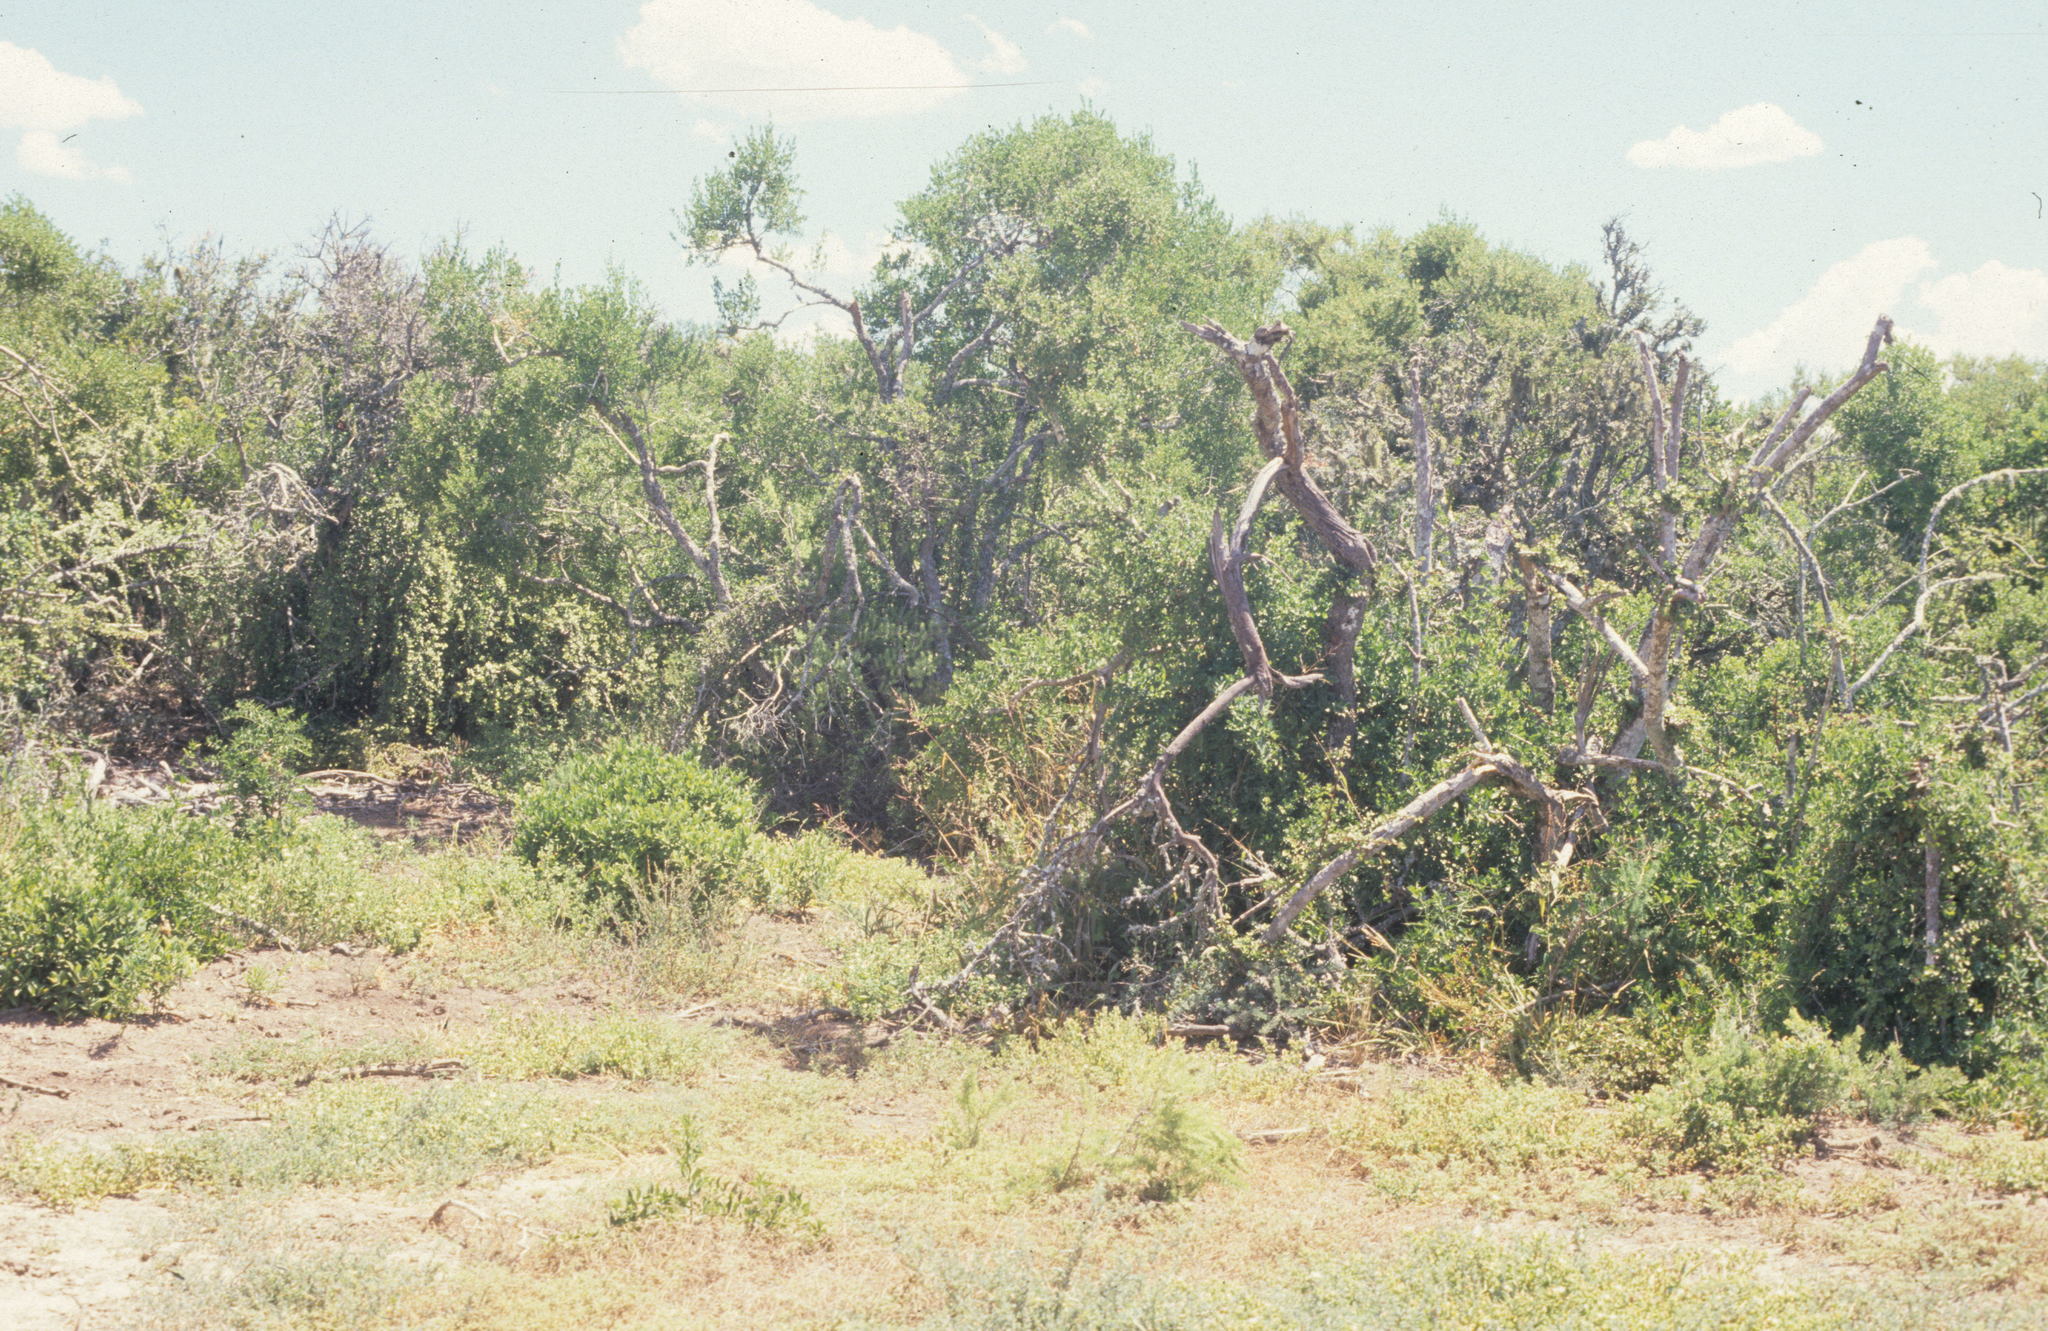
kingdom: Plantae
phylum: Tracheophyta
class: Magnoliopsida
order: Caryophyllales
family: Didiereaceae
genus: Portulacaria
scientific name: Portulacaria afra
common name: Elephant-bush
